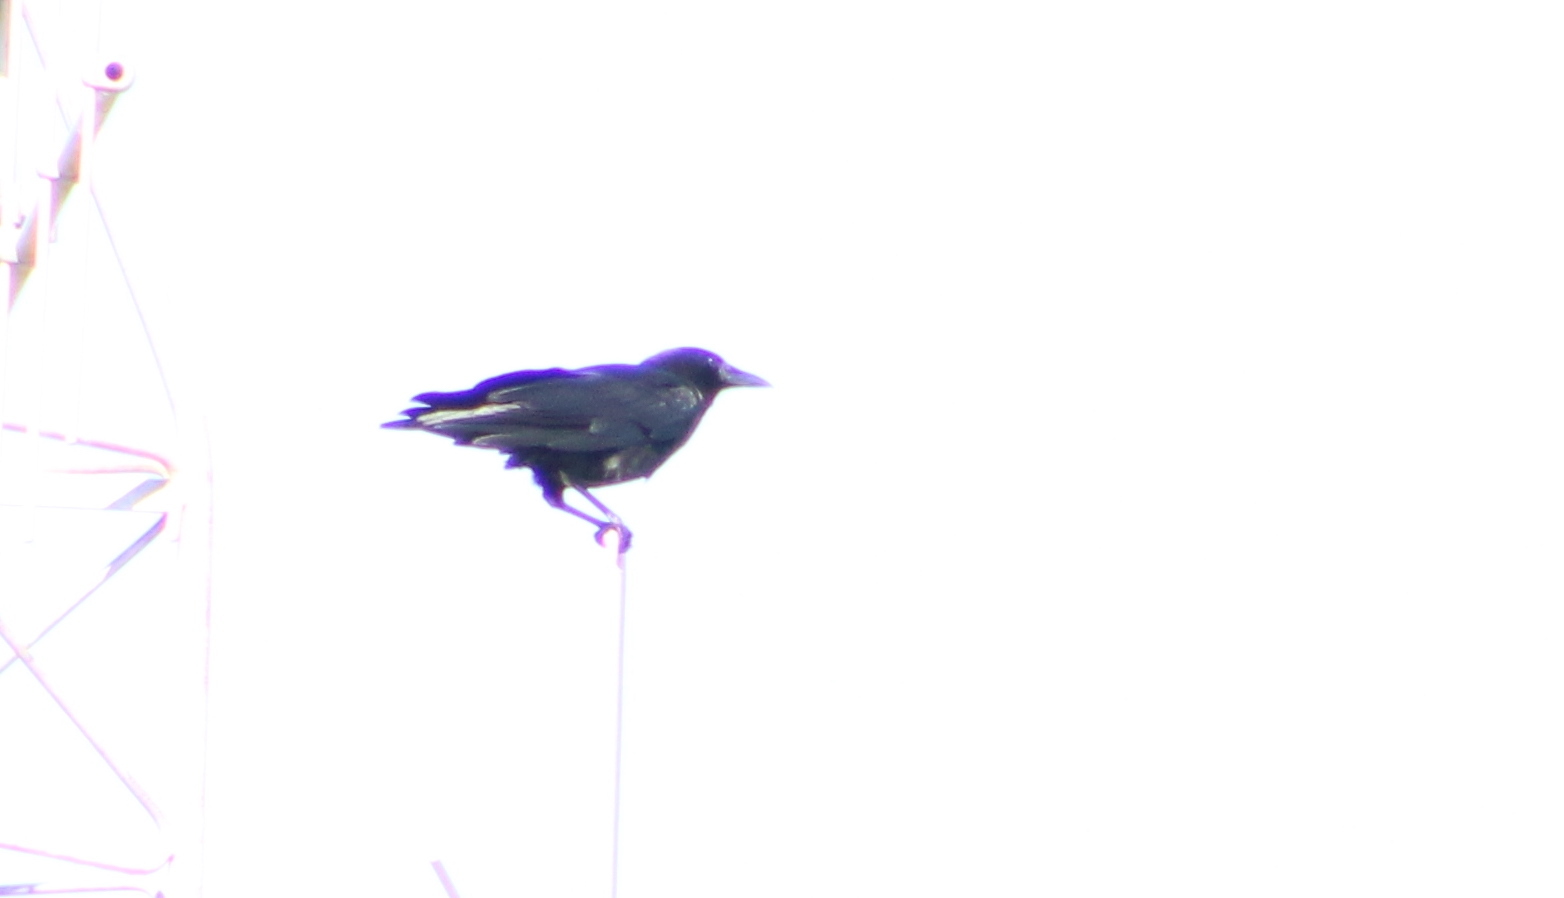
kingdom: Animalia
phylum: Chordata
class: Aves
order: Passeriformes
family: Corvidae
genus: Corvus
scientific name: Corvus brachyrhynchos
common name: American crow
